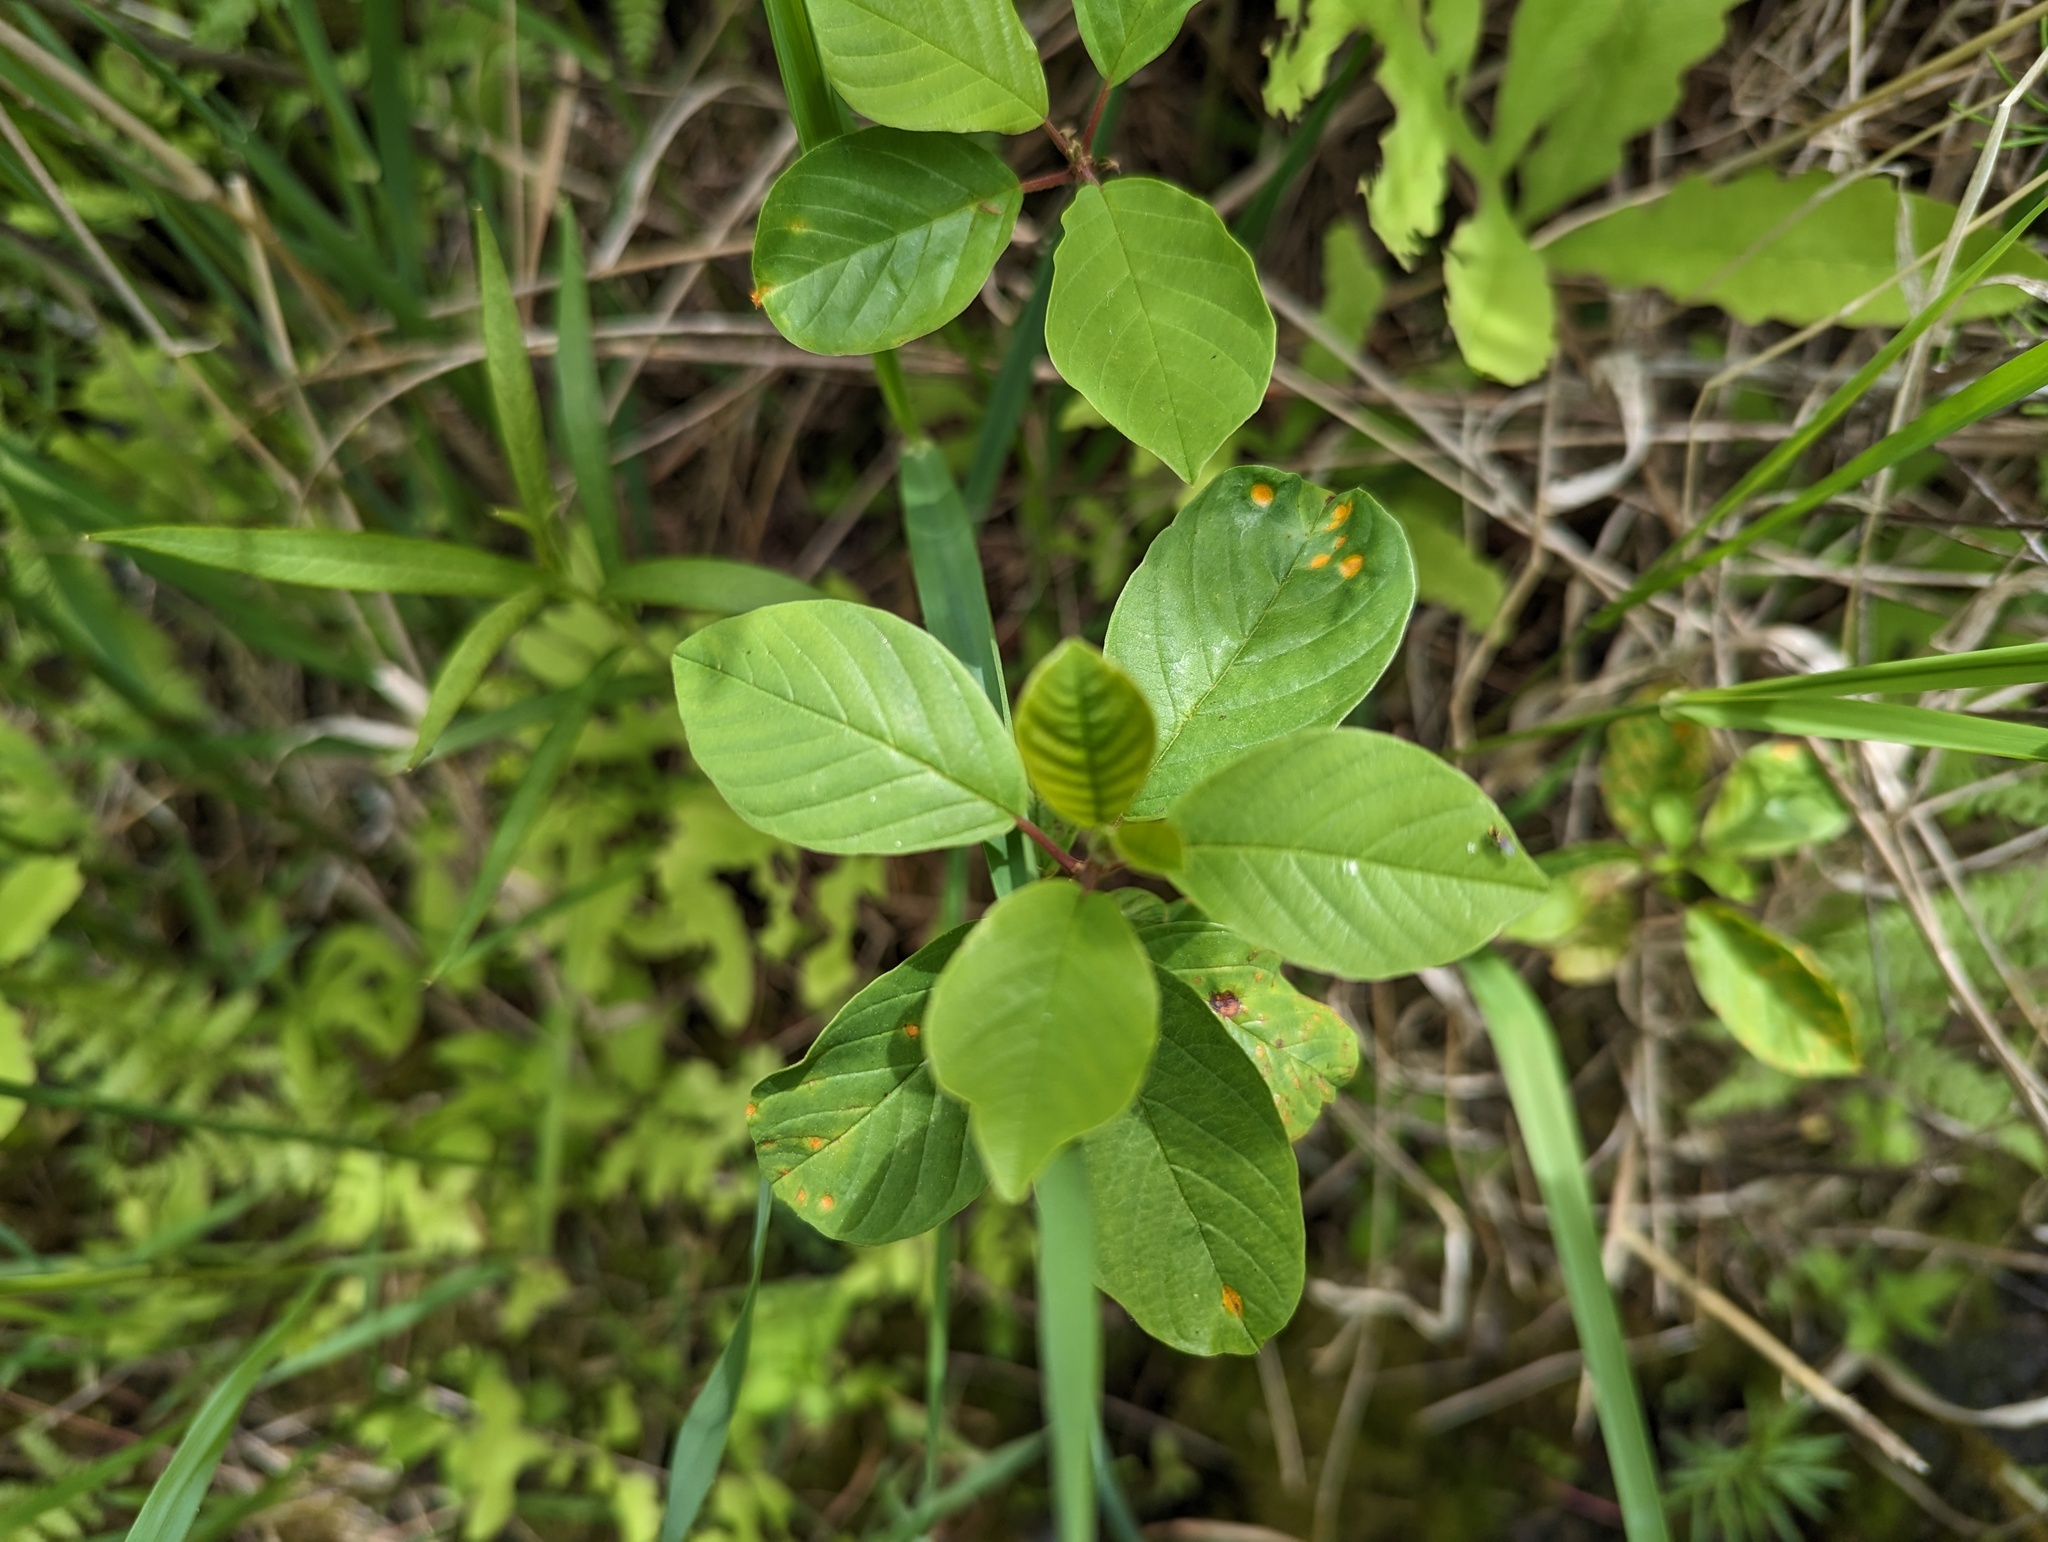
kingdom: Plantae
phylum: Tracheophyta
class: Magnoliopsida
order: Rosales
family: Rhamnaceae
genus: Frangula
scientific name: Frangula alnus
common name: Alder buckthorn
